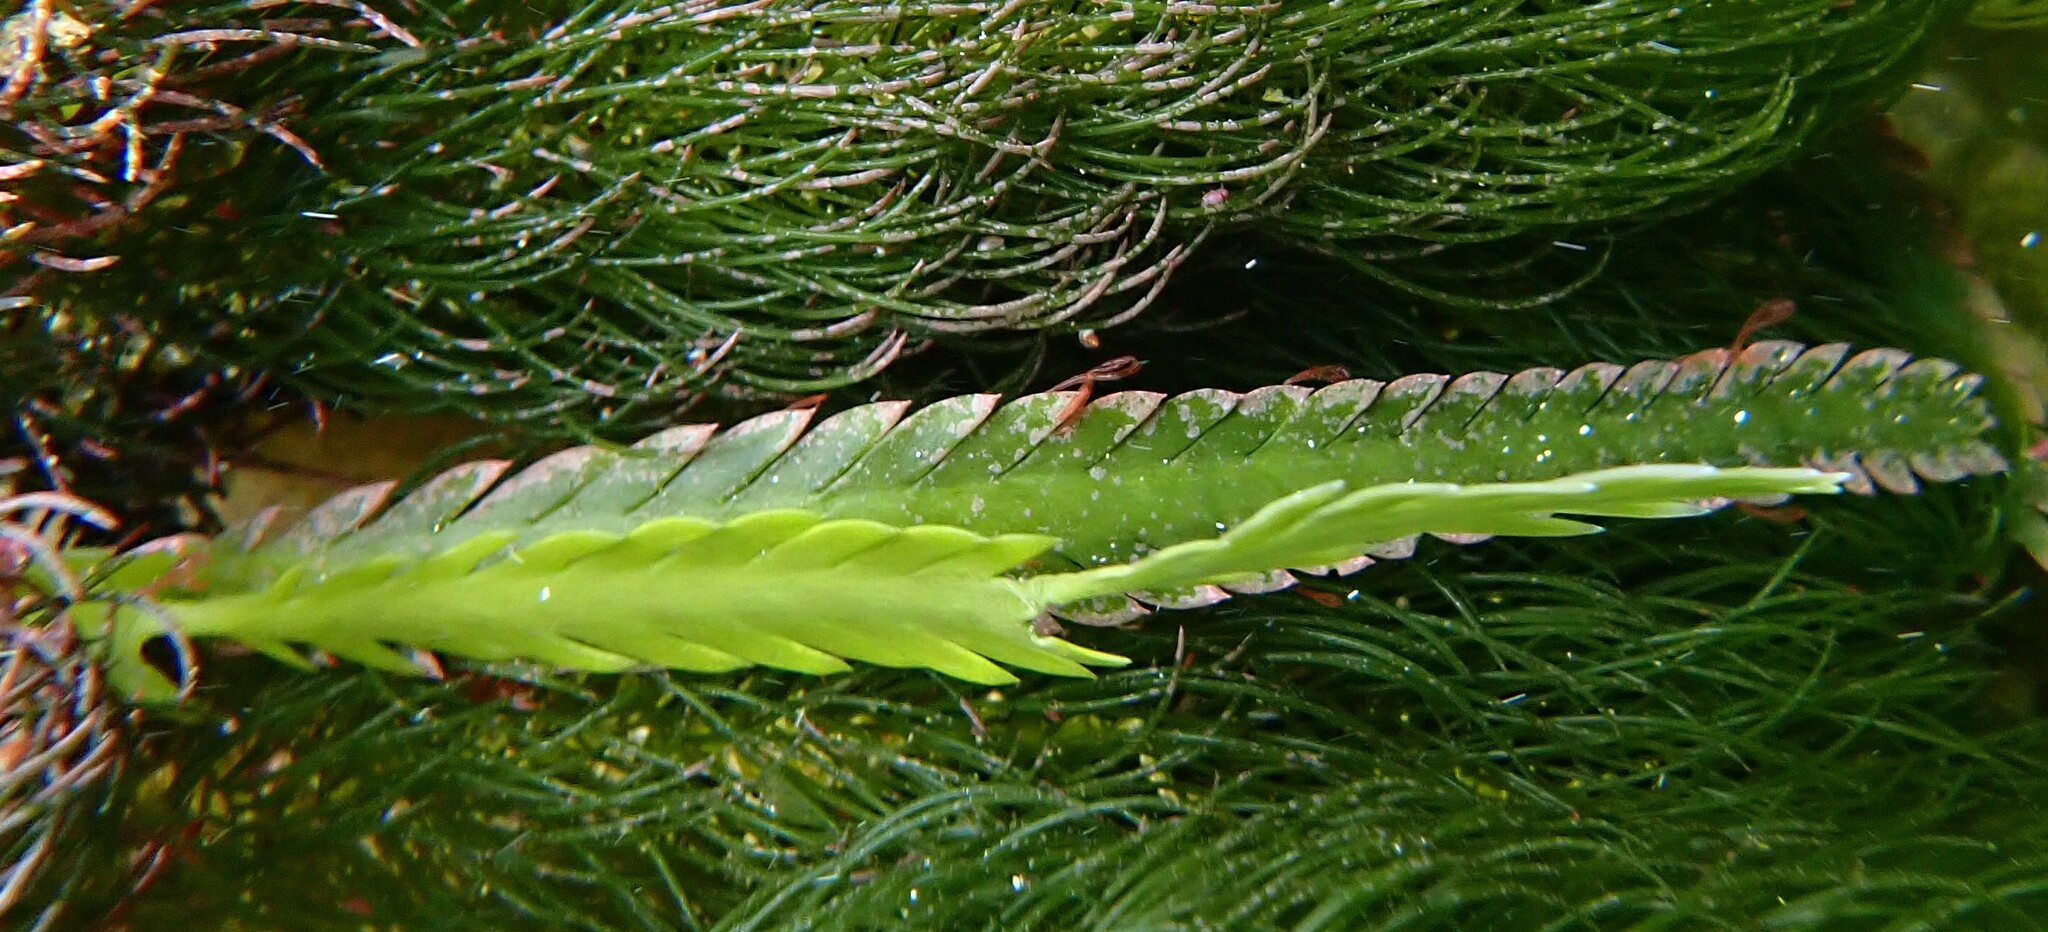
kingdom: Plantae
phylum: Chlorophyta
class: Ulvophyceae
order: Bryopsidales
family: Caulerpaceae
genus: Caulerpa
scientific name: Caulerpa
